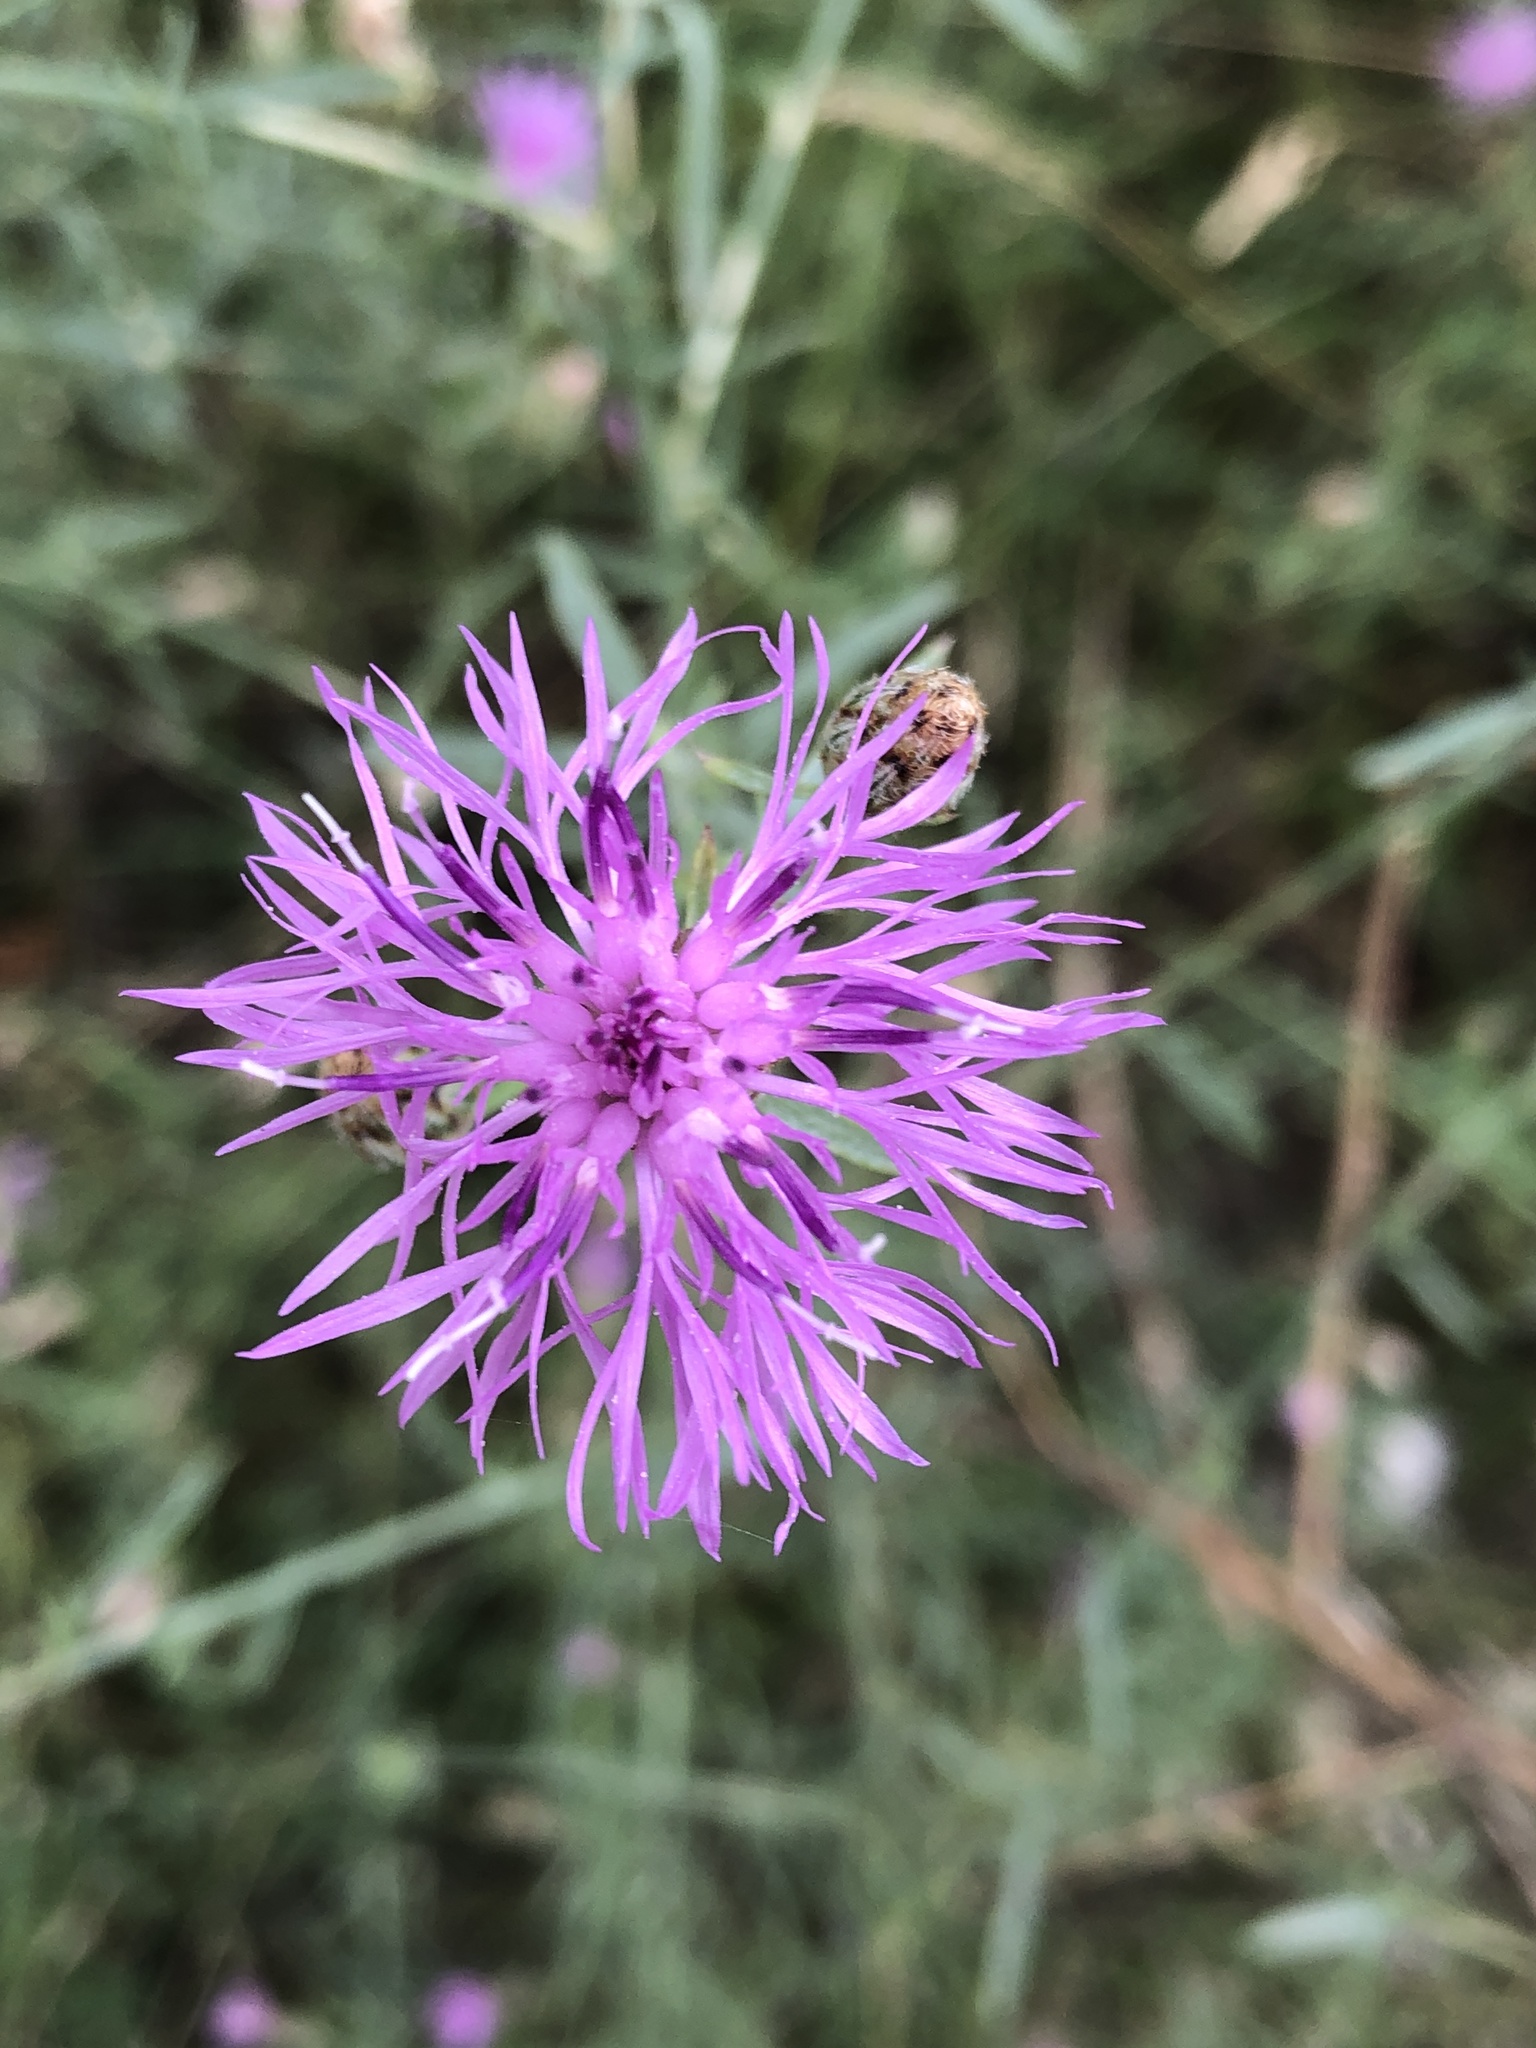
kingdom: Plantae
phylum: Tracheophyta
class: Magnoliopsida
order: Asterales
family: Asteraceae
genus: Centaurea
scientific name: Centaurea moncktonii
